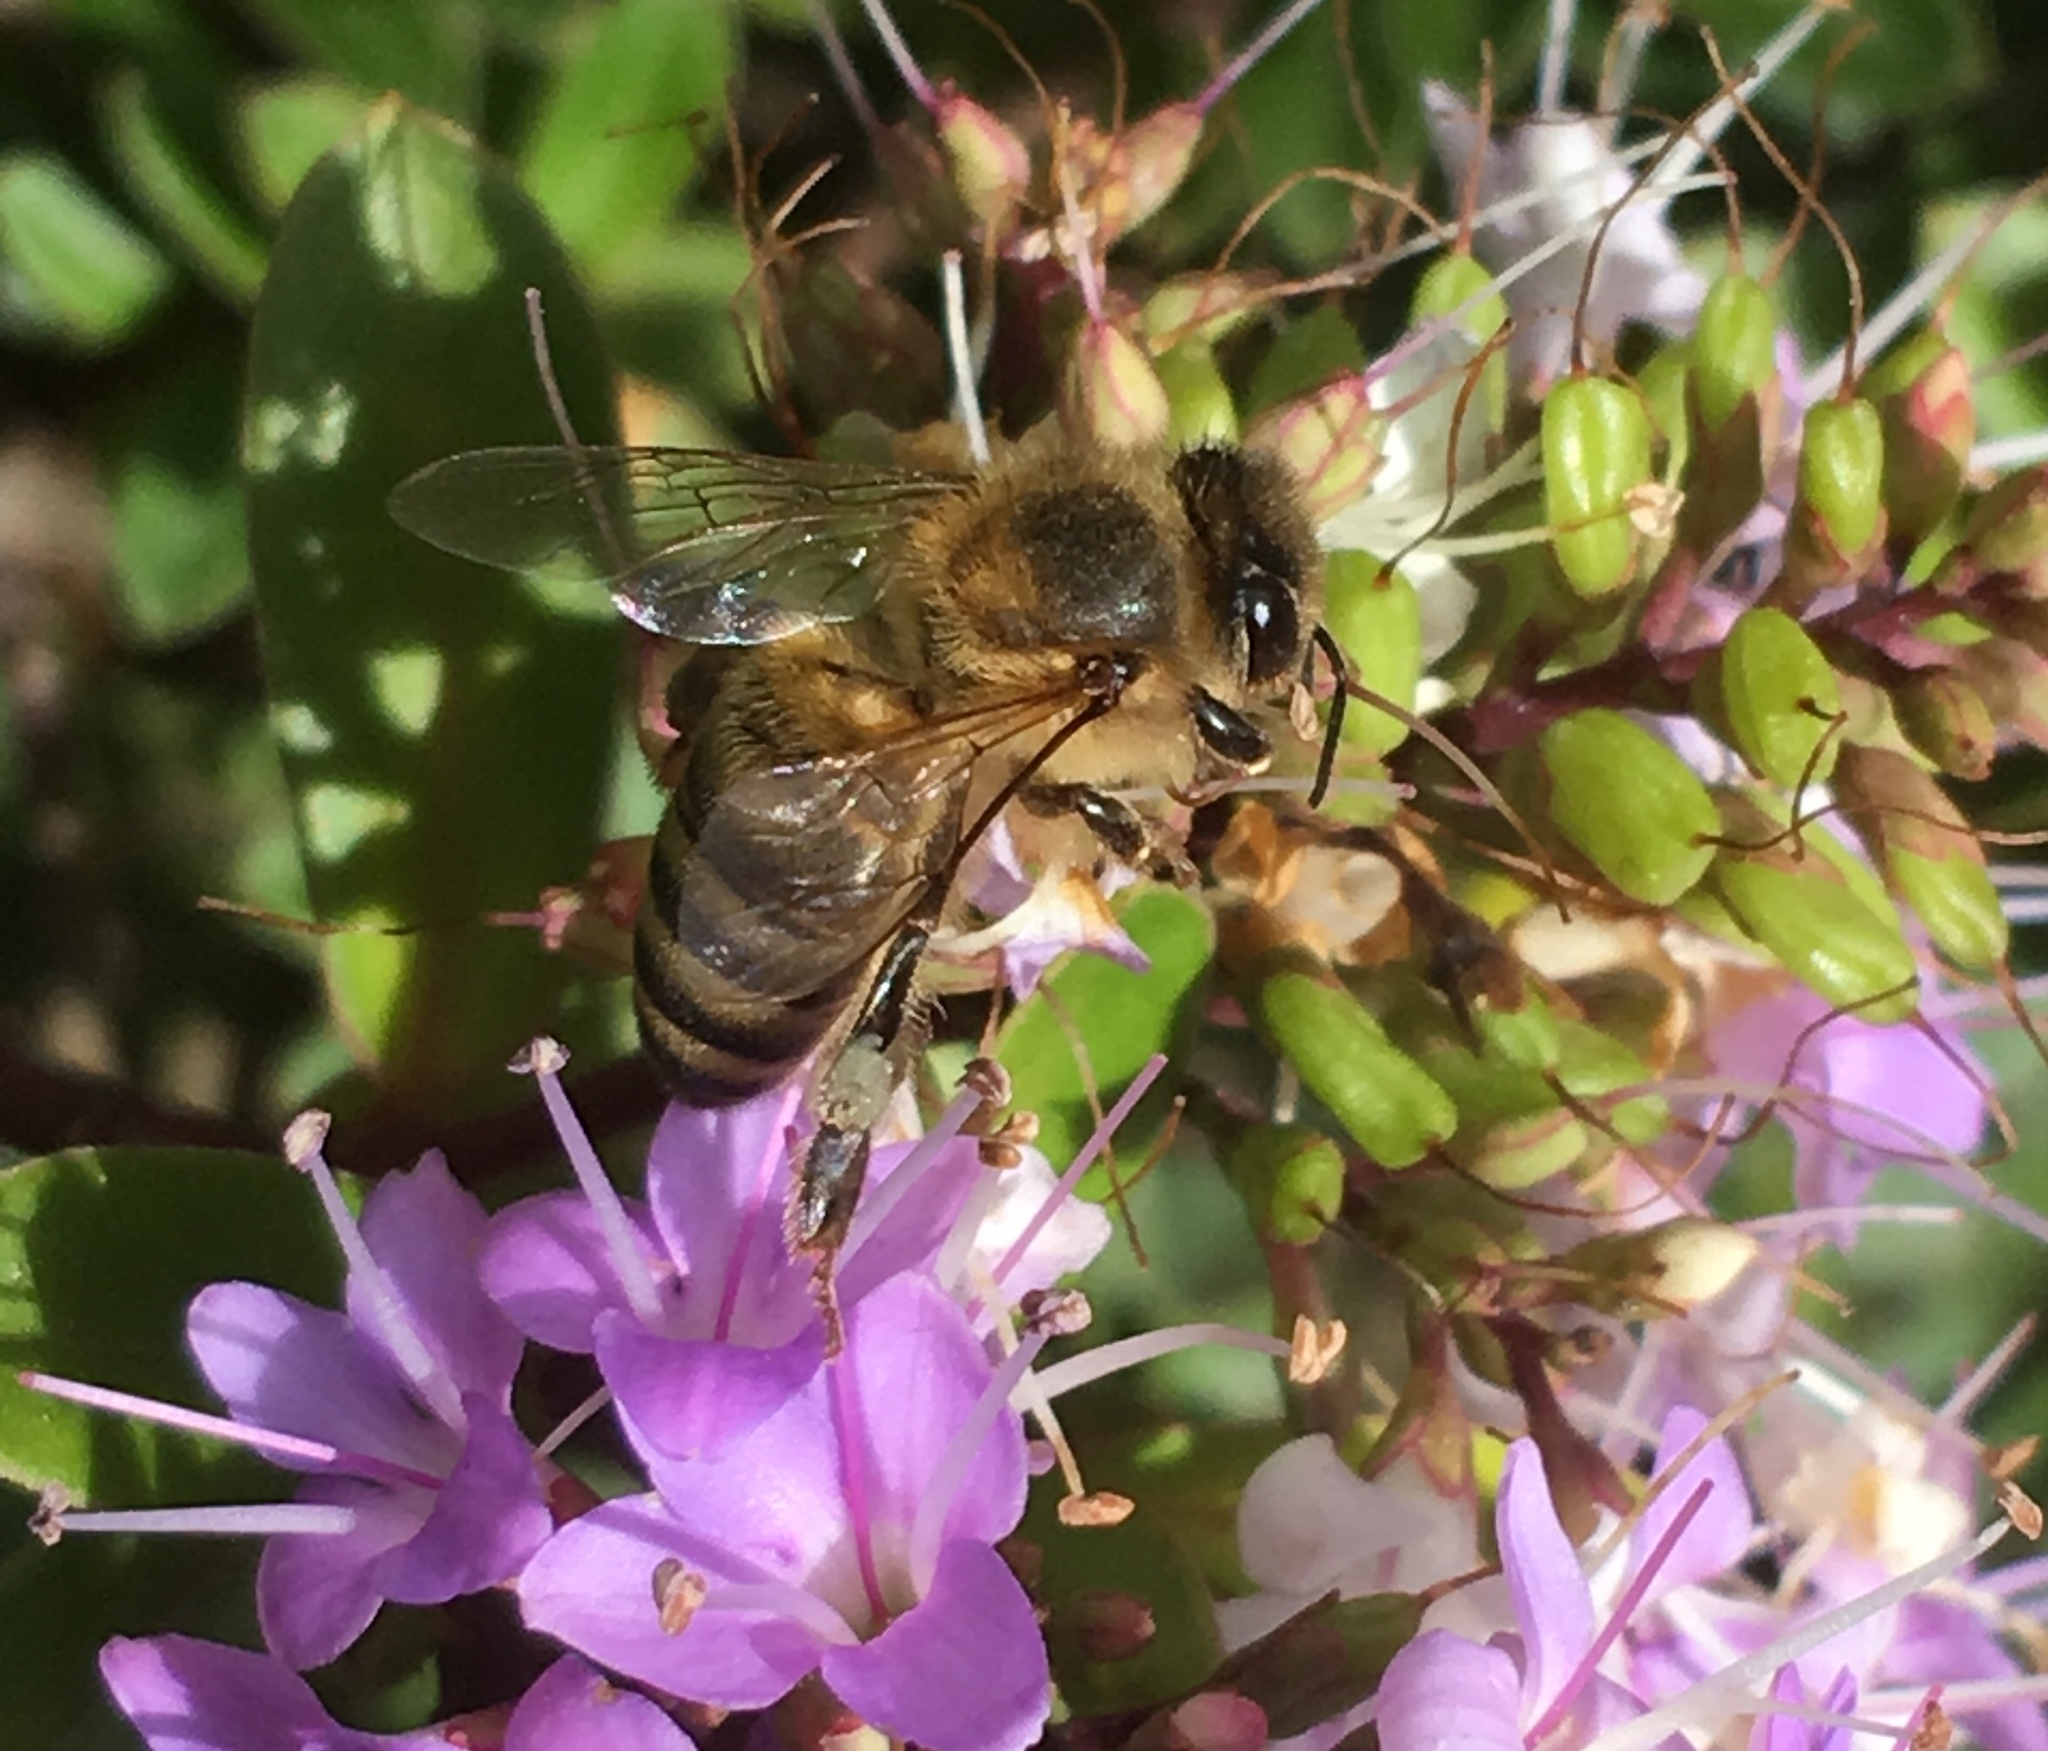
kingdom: Animalia
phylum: Arthropoda
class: Insecta
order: Hymenoptera
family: Apidae
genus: Apis
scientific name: Apis mellifera
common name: Honey bee
